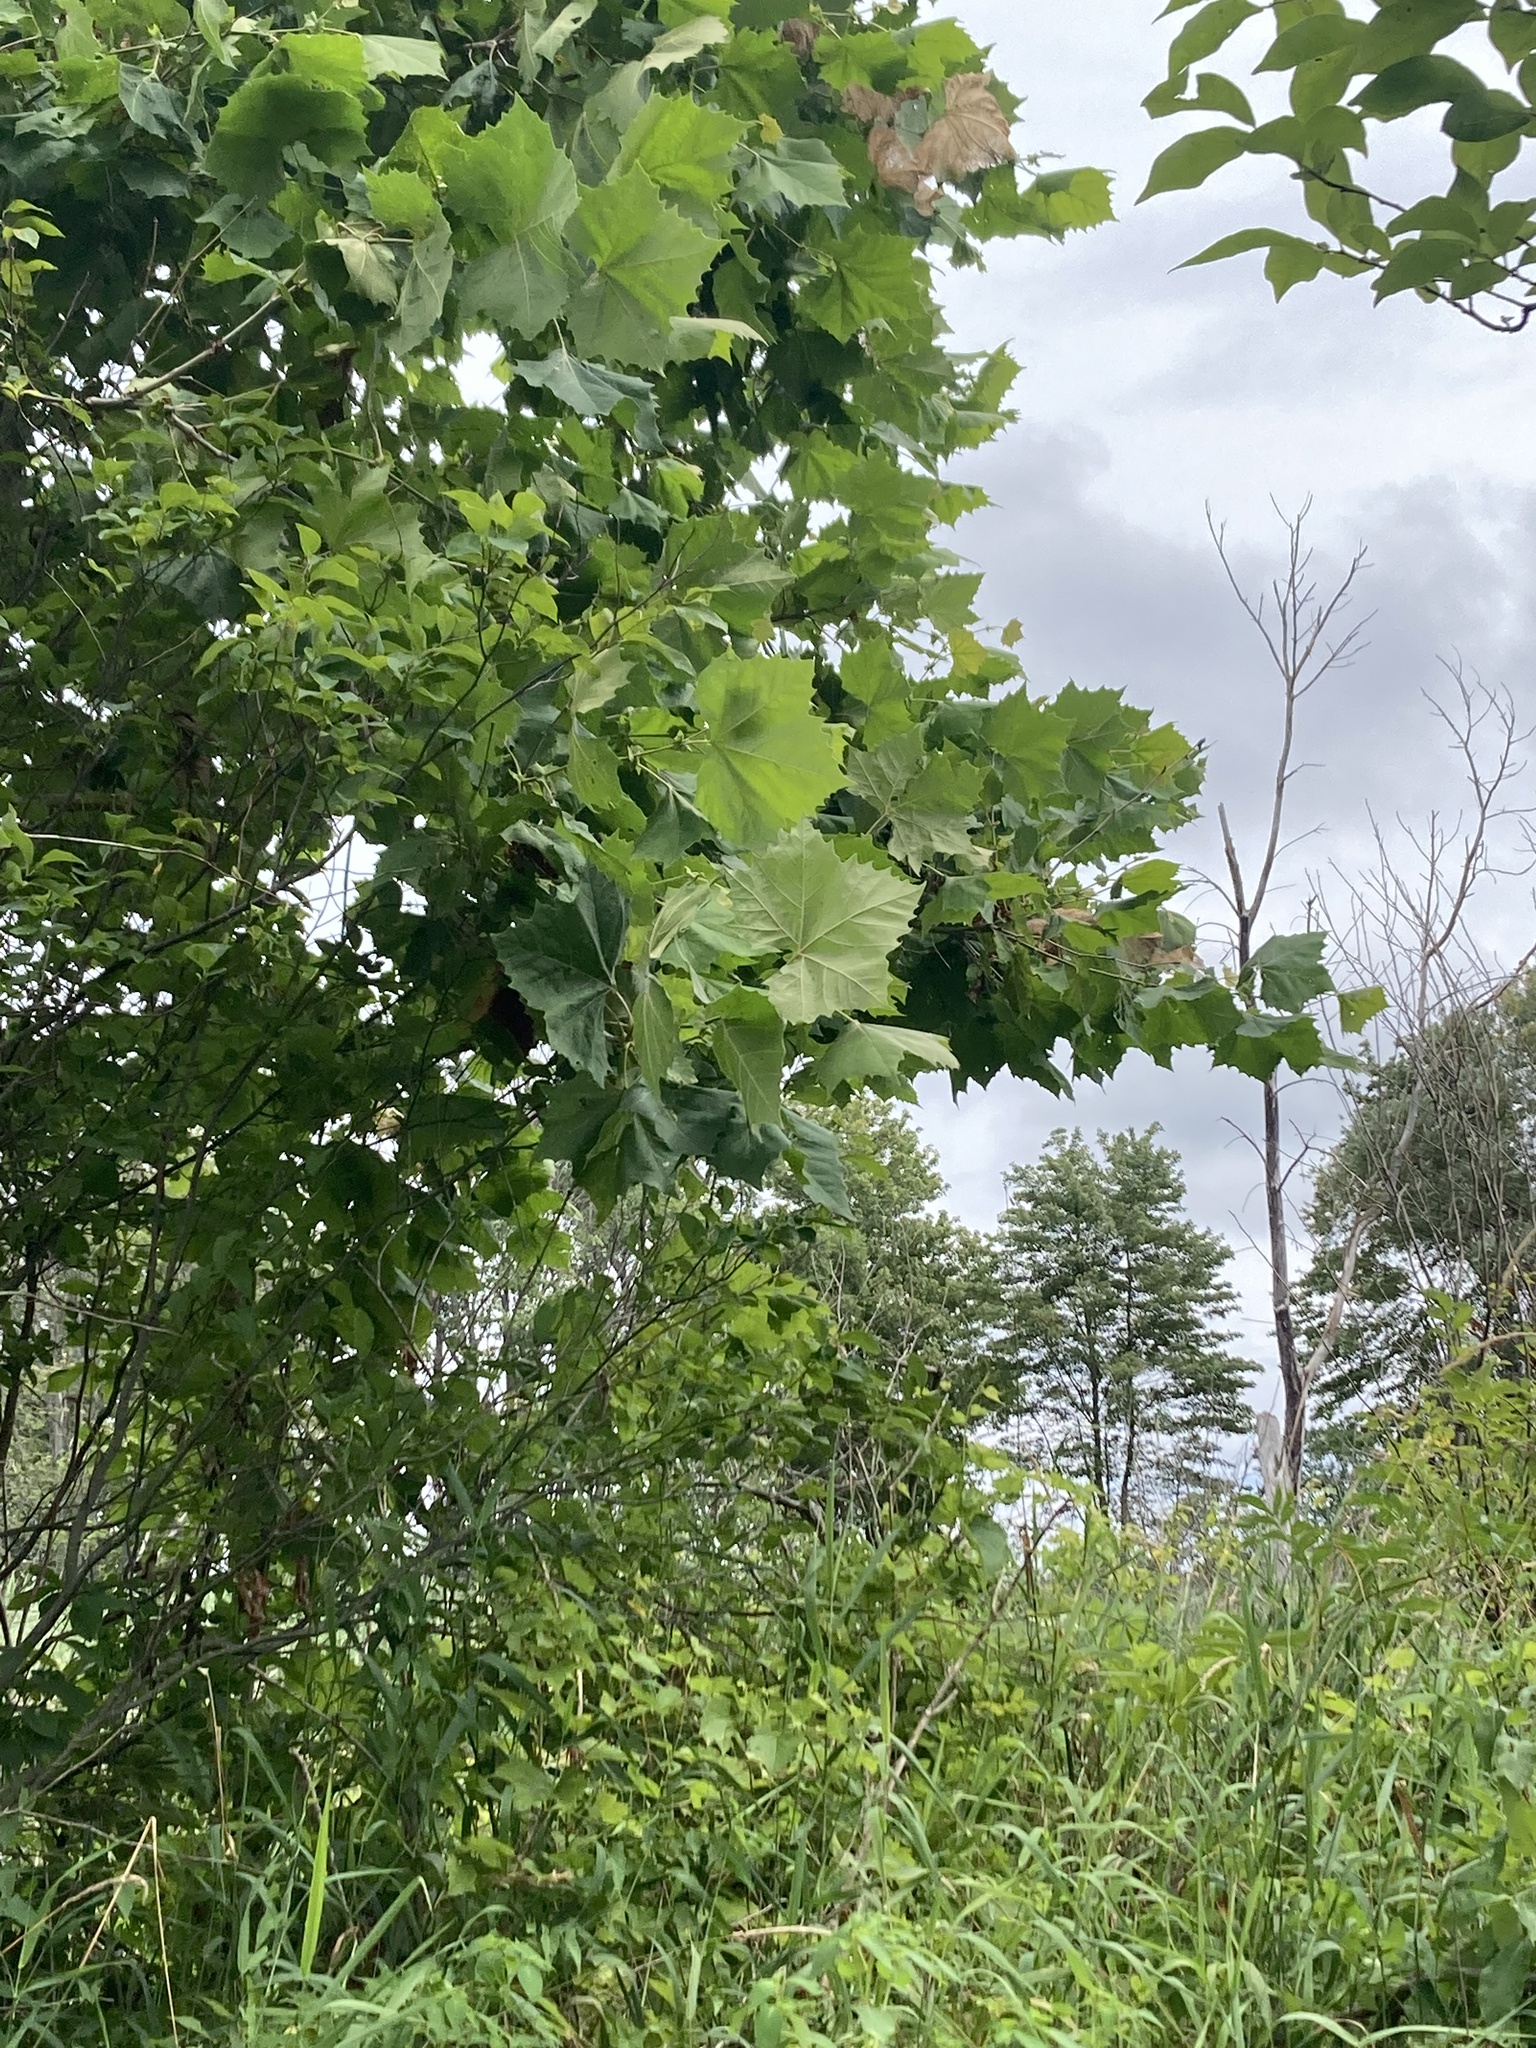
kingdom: Plantae
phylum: Tracheophyta
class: Magnoliopsida
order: Proteales
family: Platanaceae
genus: Platanus
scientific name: Platanus occidentalis
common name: American sycamore
